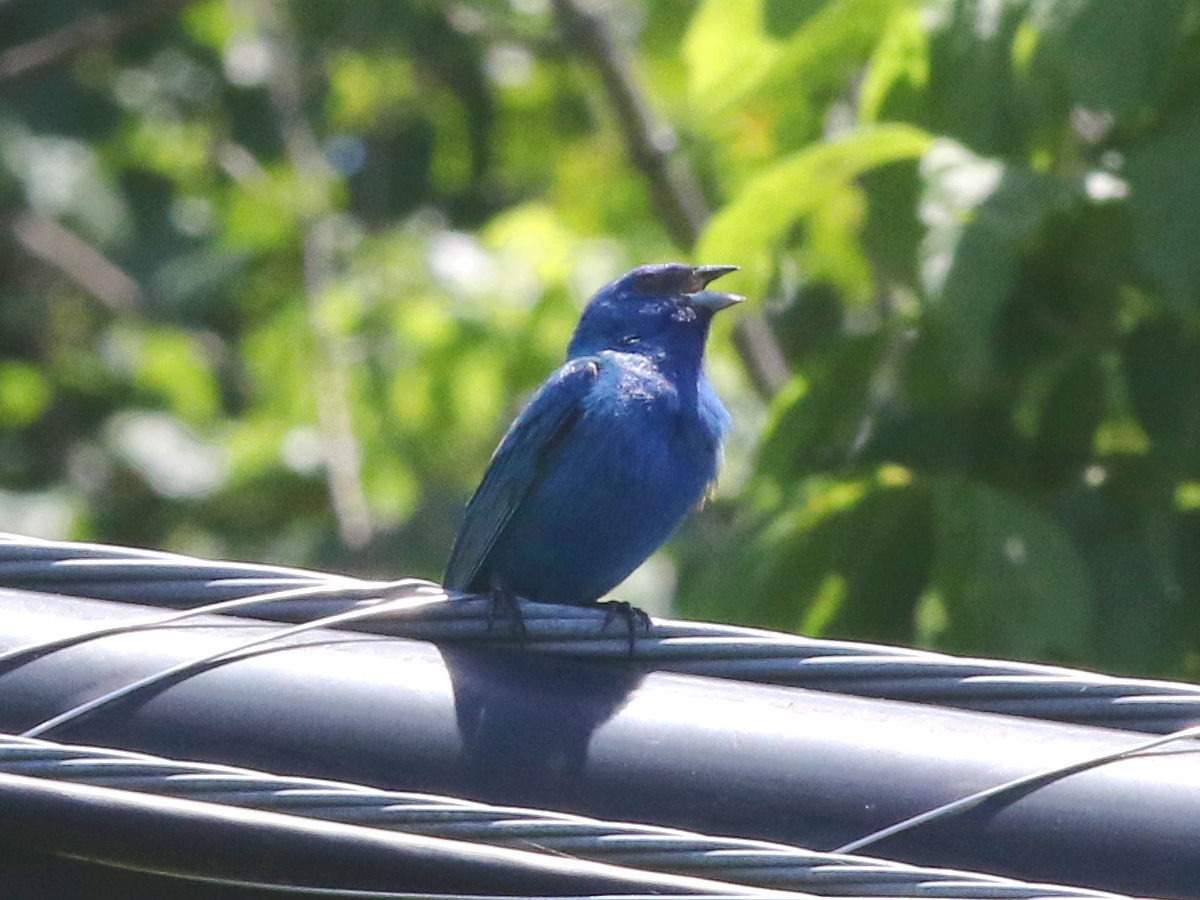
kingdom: Animalia
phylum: Chordata
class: Aves
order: Passeriformes
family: Cardinalidae
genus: Passerina
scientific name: Passerina cyanea
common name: Indigo bunting
